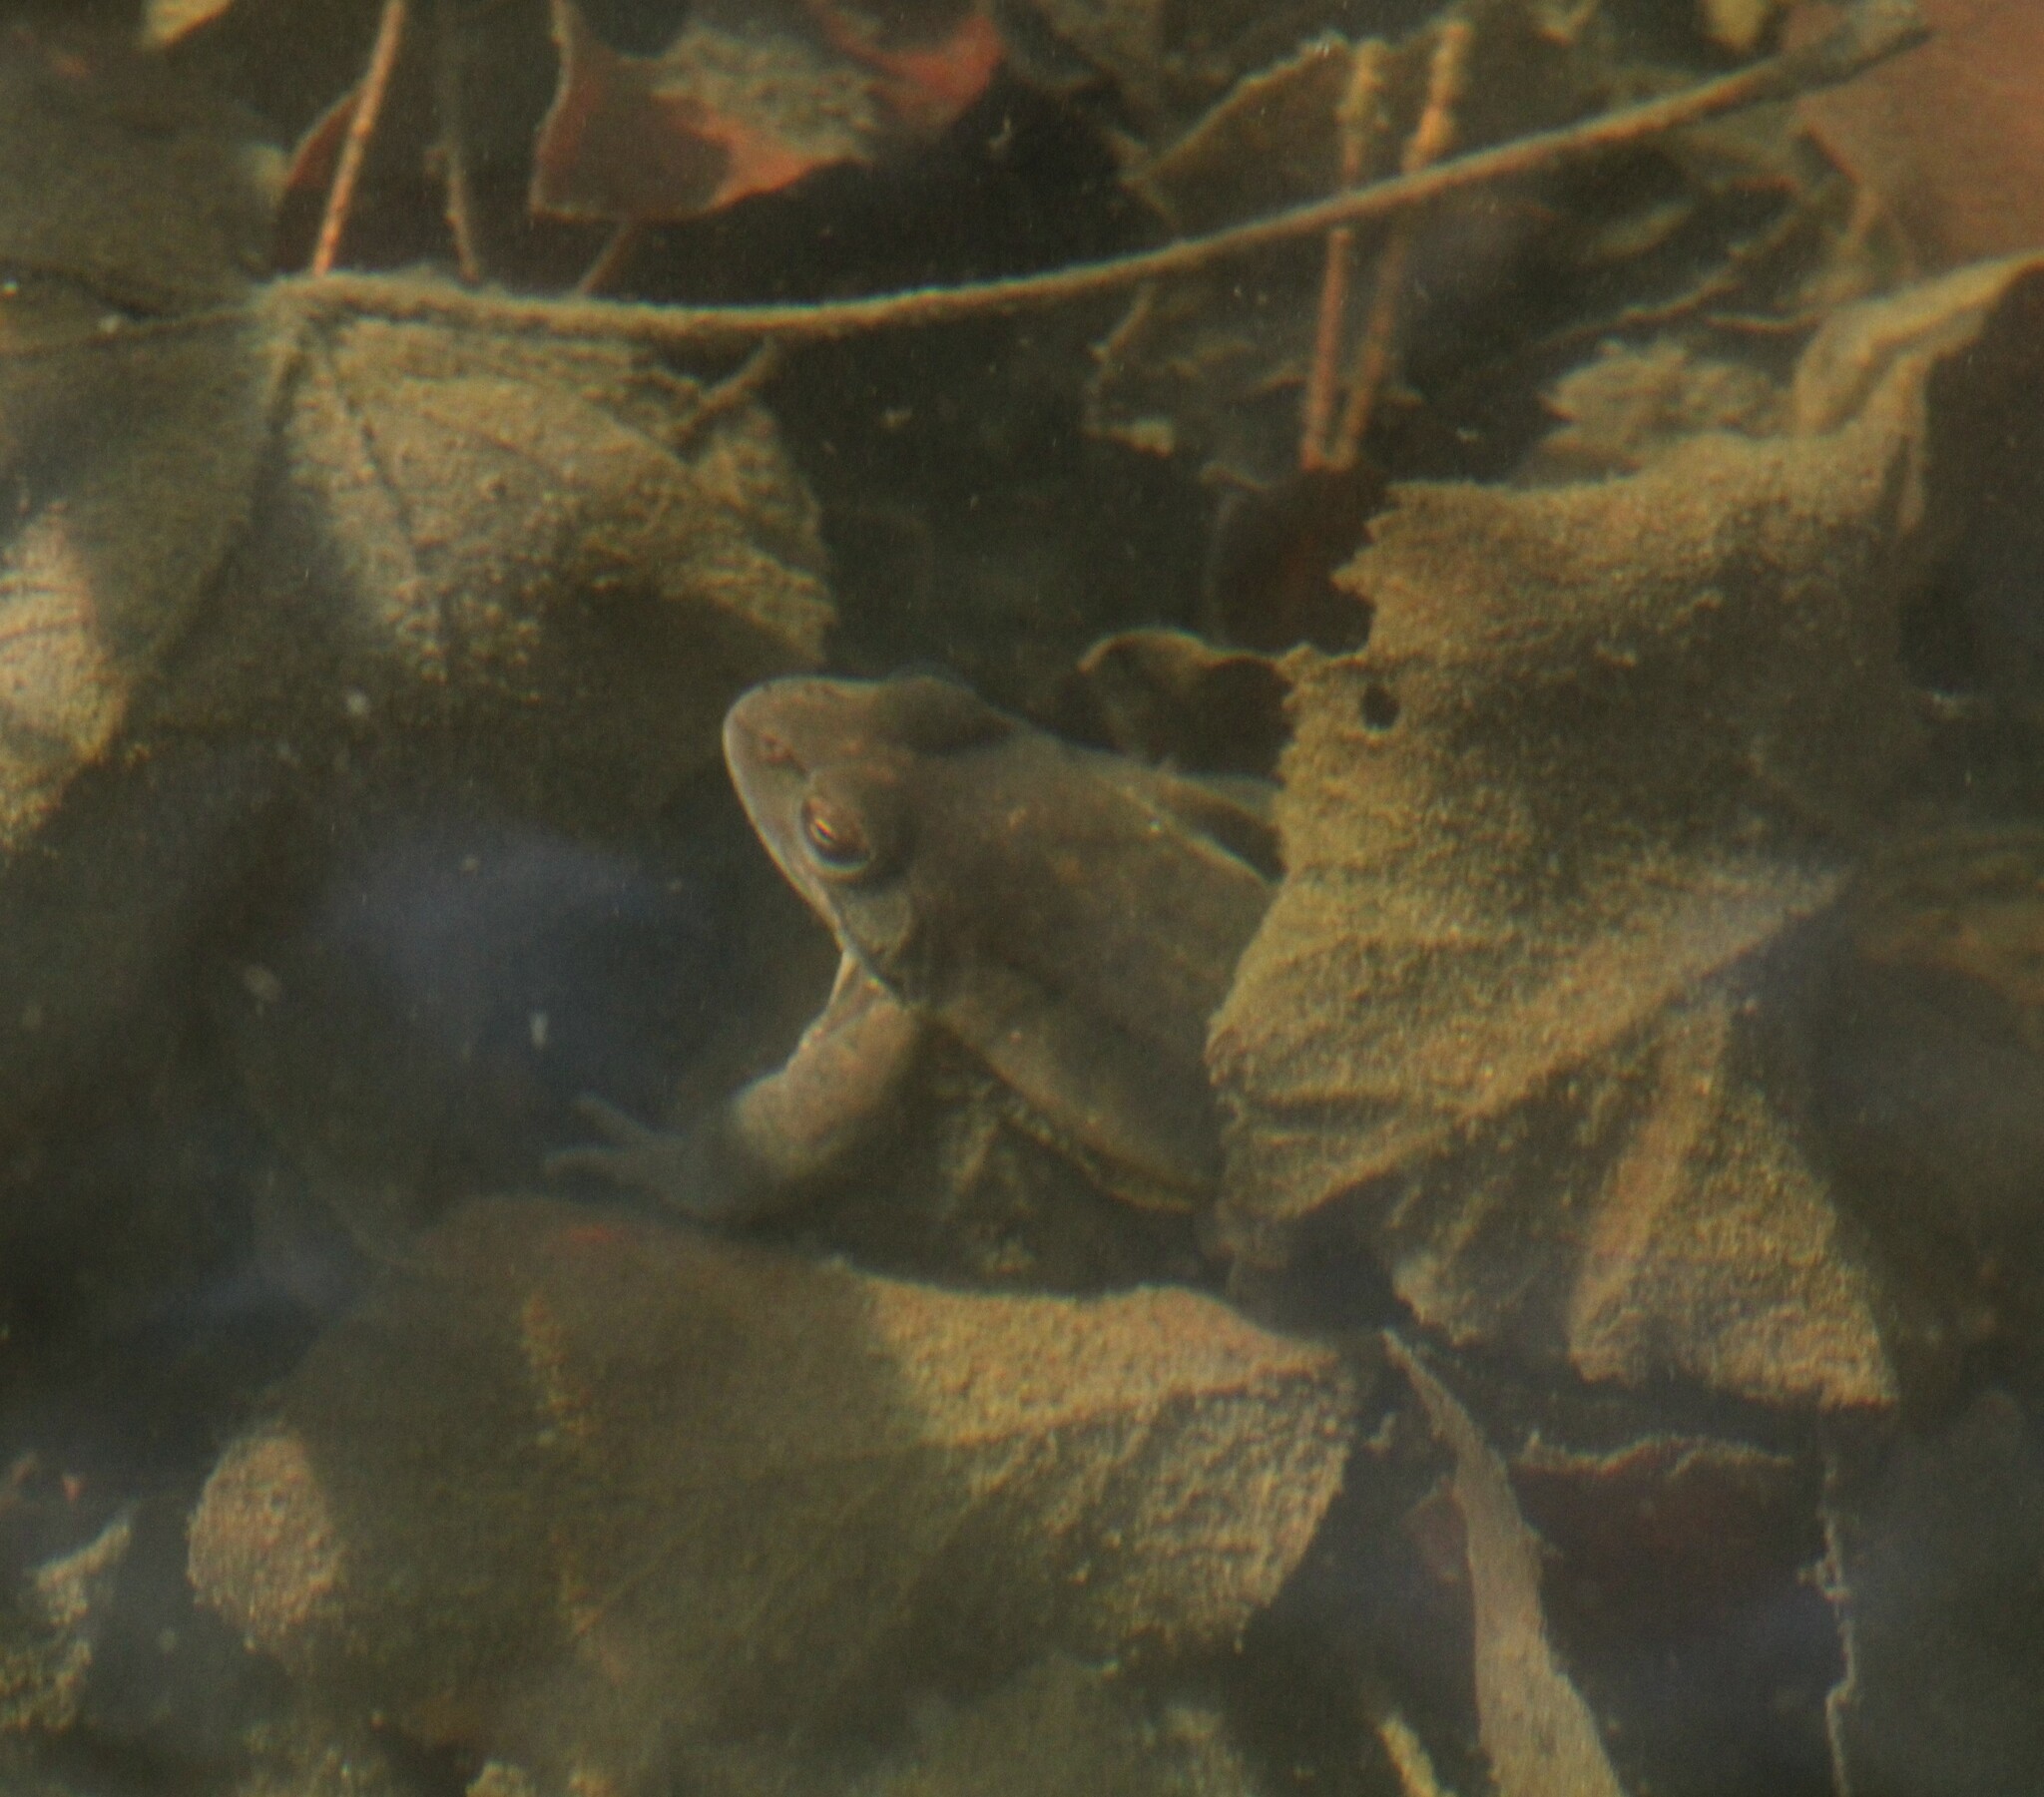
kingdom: Animalia
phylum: Chordata
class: Amphibia
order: Anura
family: Ranidae
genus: Rana
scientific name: Rana dalmatina
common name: Agile frog
